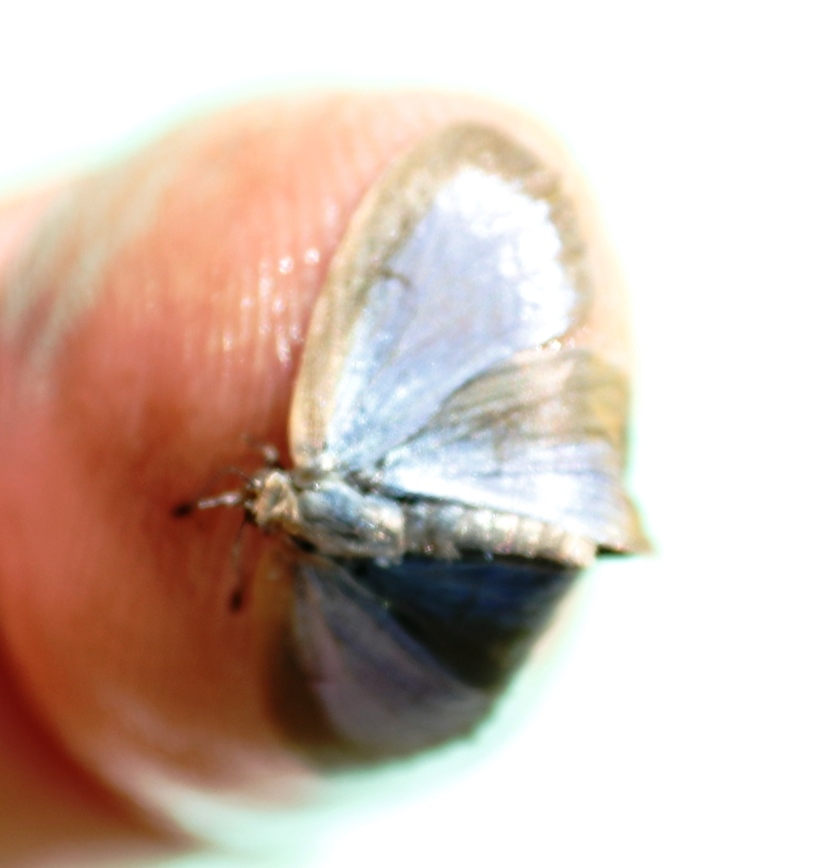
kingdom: Animalia
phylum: Arthropoda
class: Insecta
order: Lepidoptera
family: Lycaenidae
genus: Zizeeria
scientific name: Zizeeria knysna
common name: African grass blue
